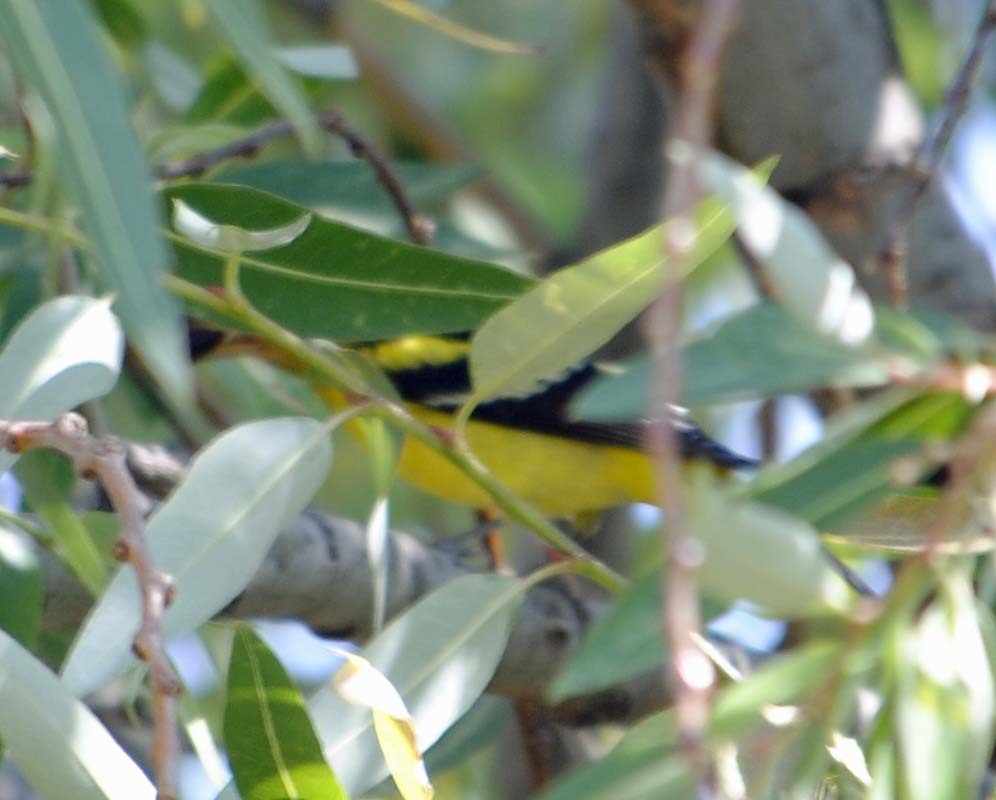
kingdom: Animalia
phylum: Chordata
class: Aves
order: Passeriformes
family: Cardinalidae
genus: Piranga
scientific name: Piranga ludoviciana
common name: Western tanager
